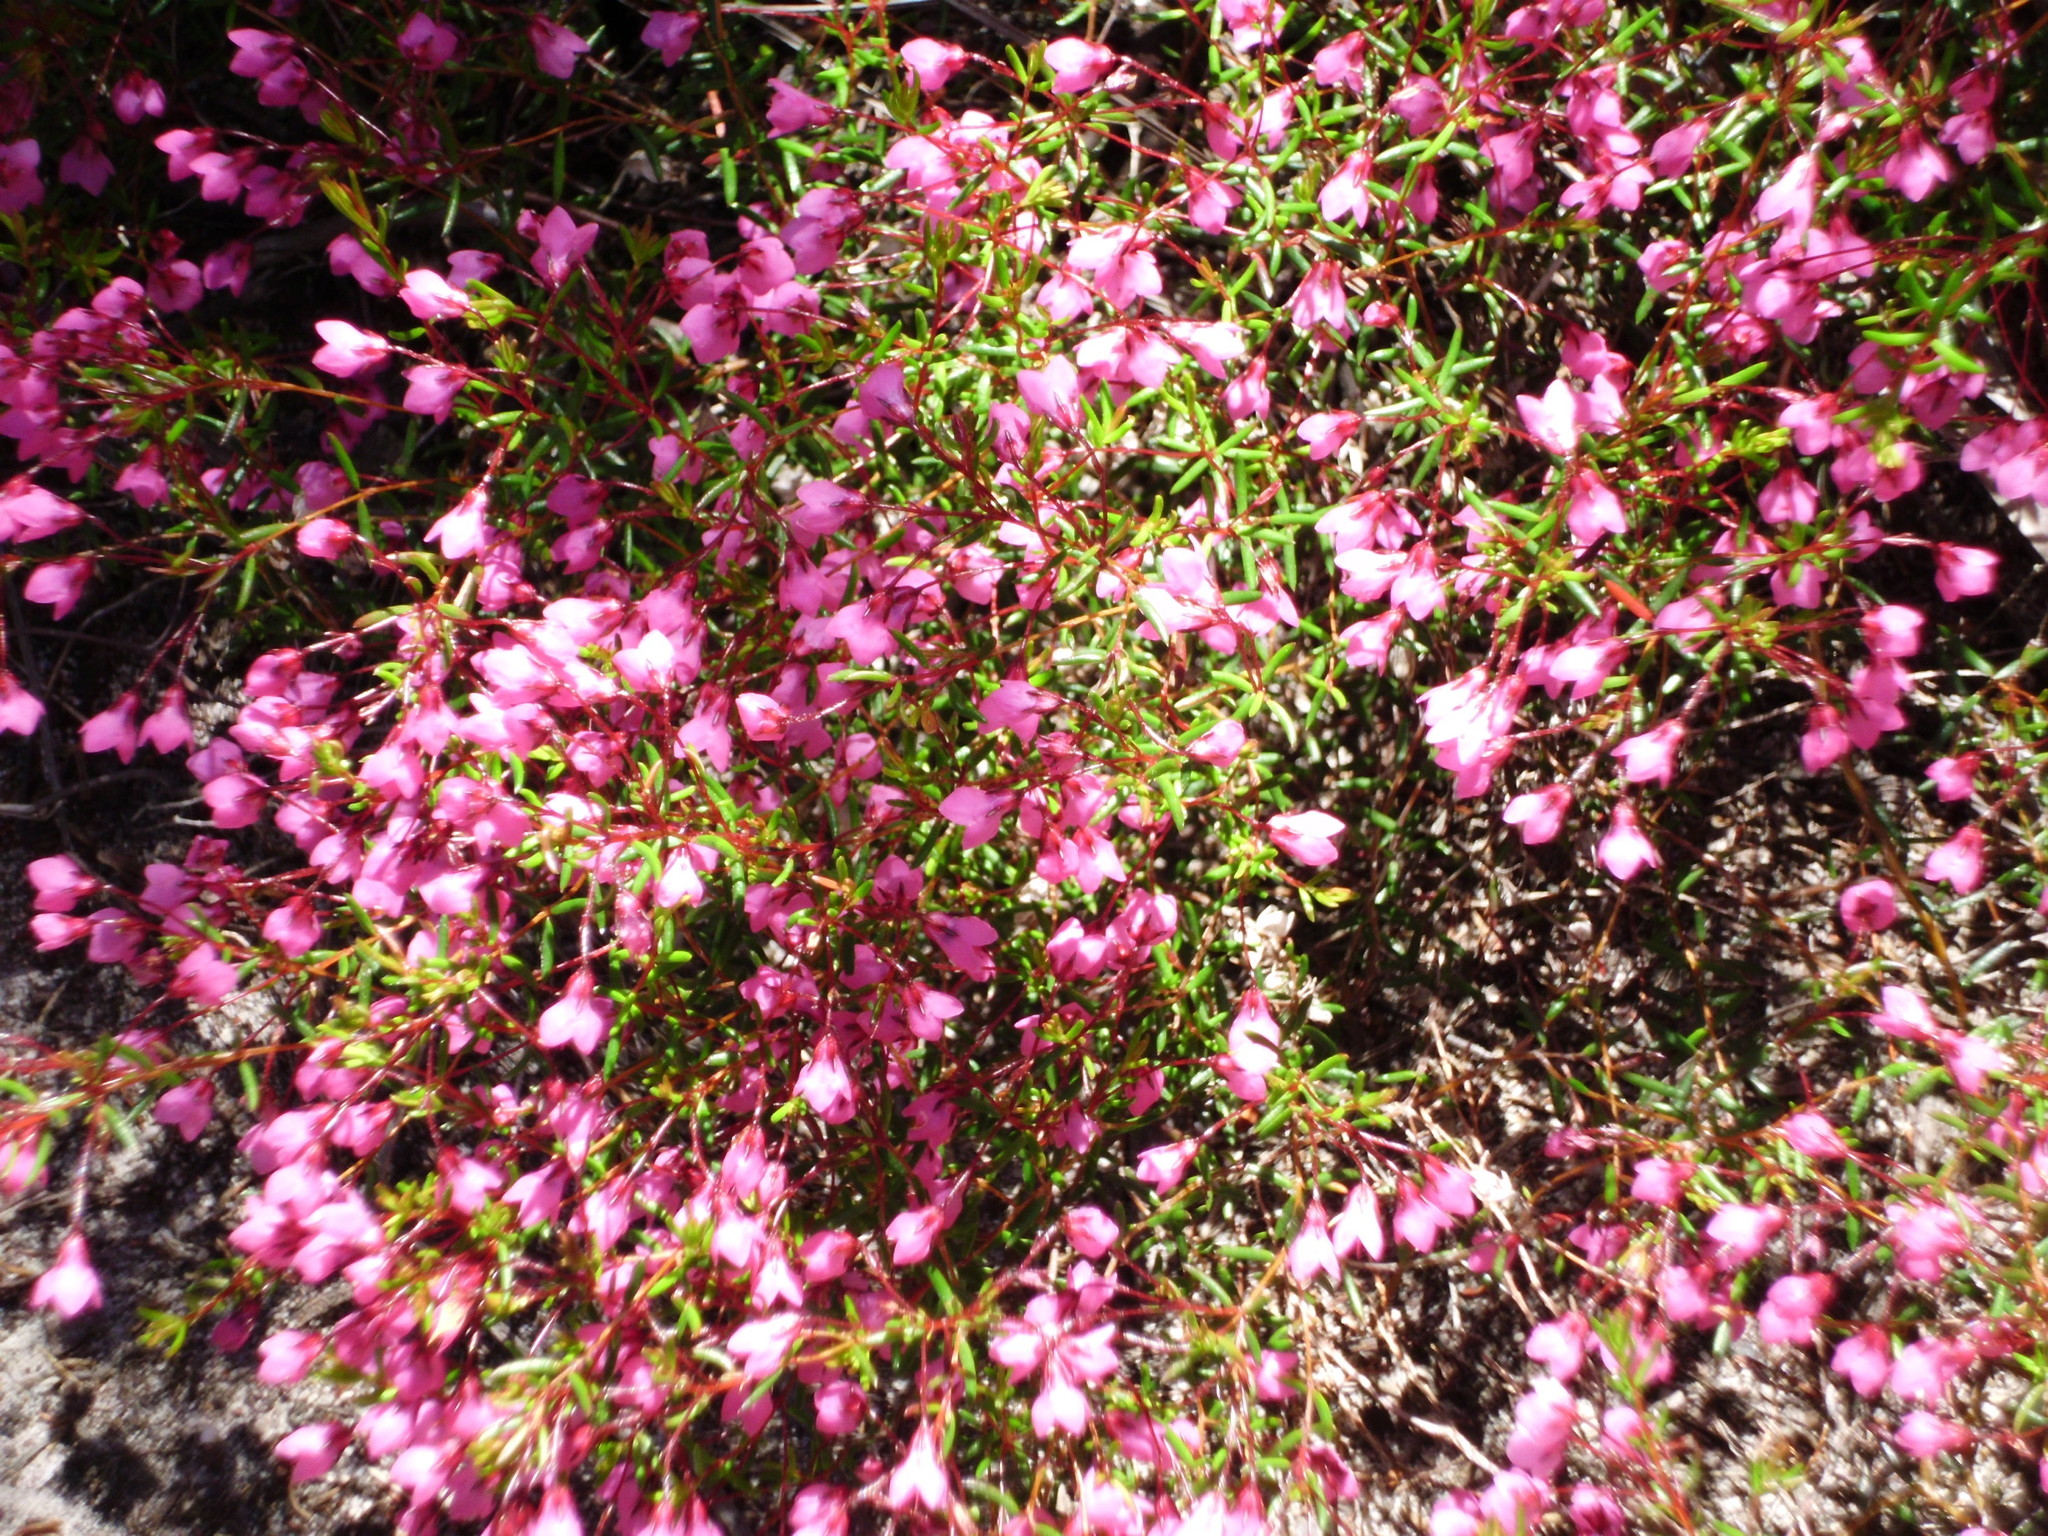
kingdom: Plantae
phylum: Tracheophyta
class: Magnoliopsida
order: Ericales
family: Ericaceae
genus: Erica
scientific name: Erica tetrathecoides
